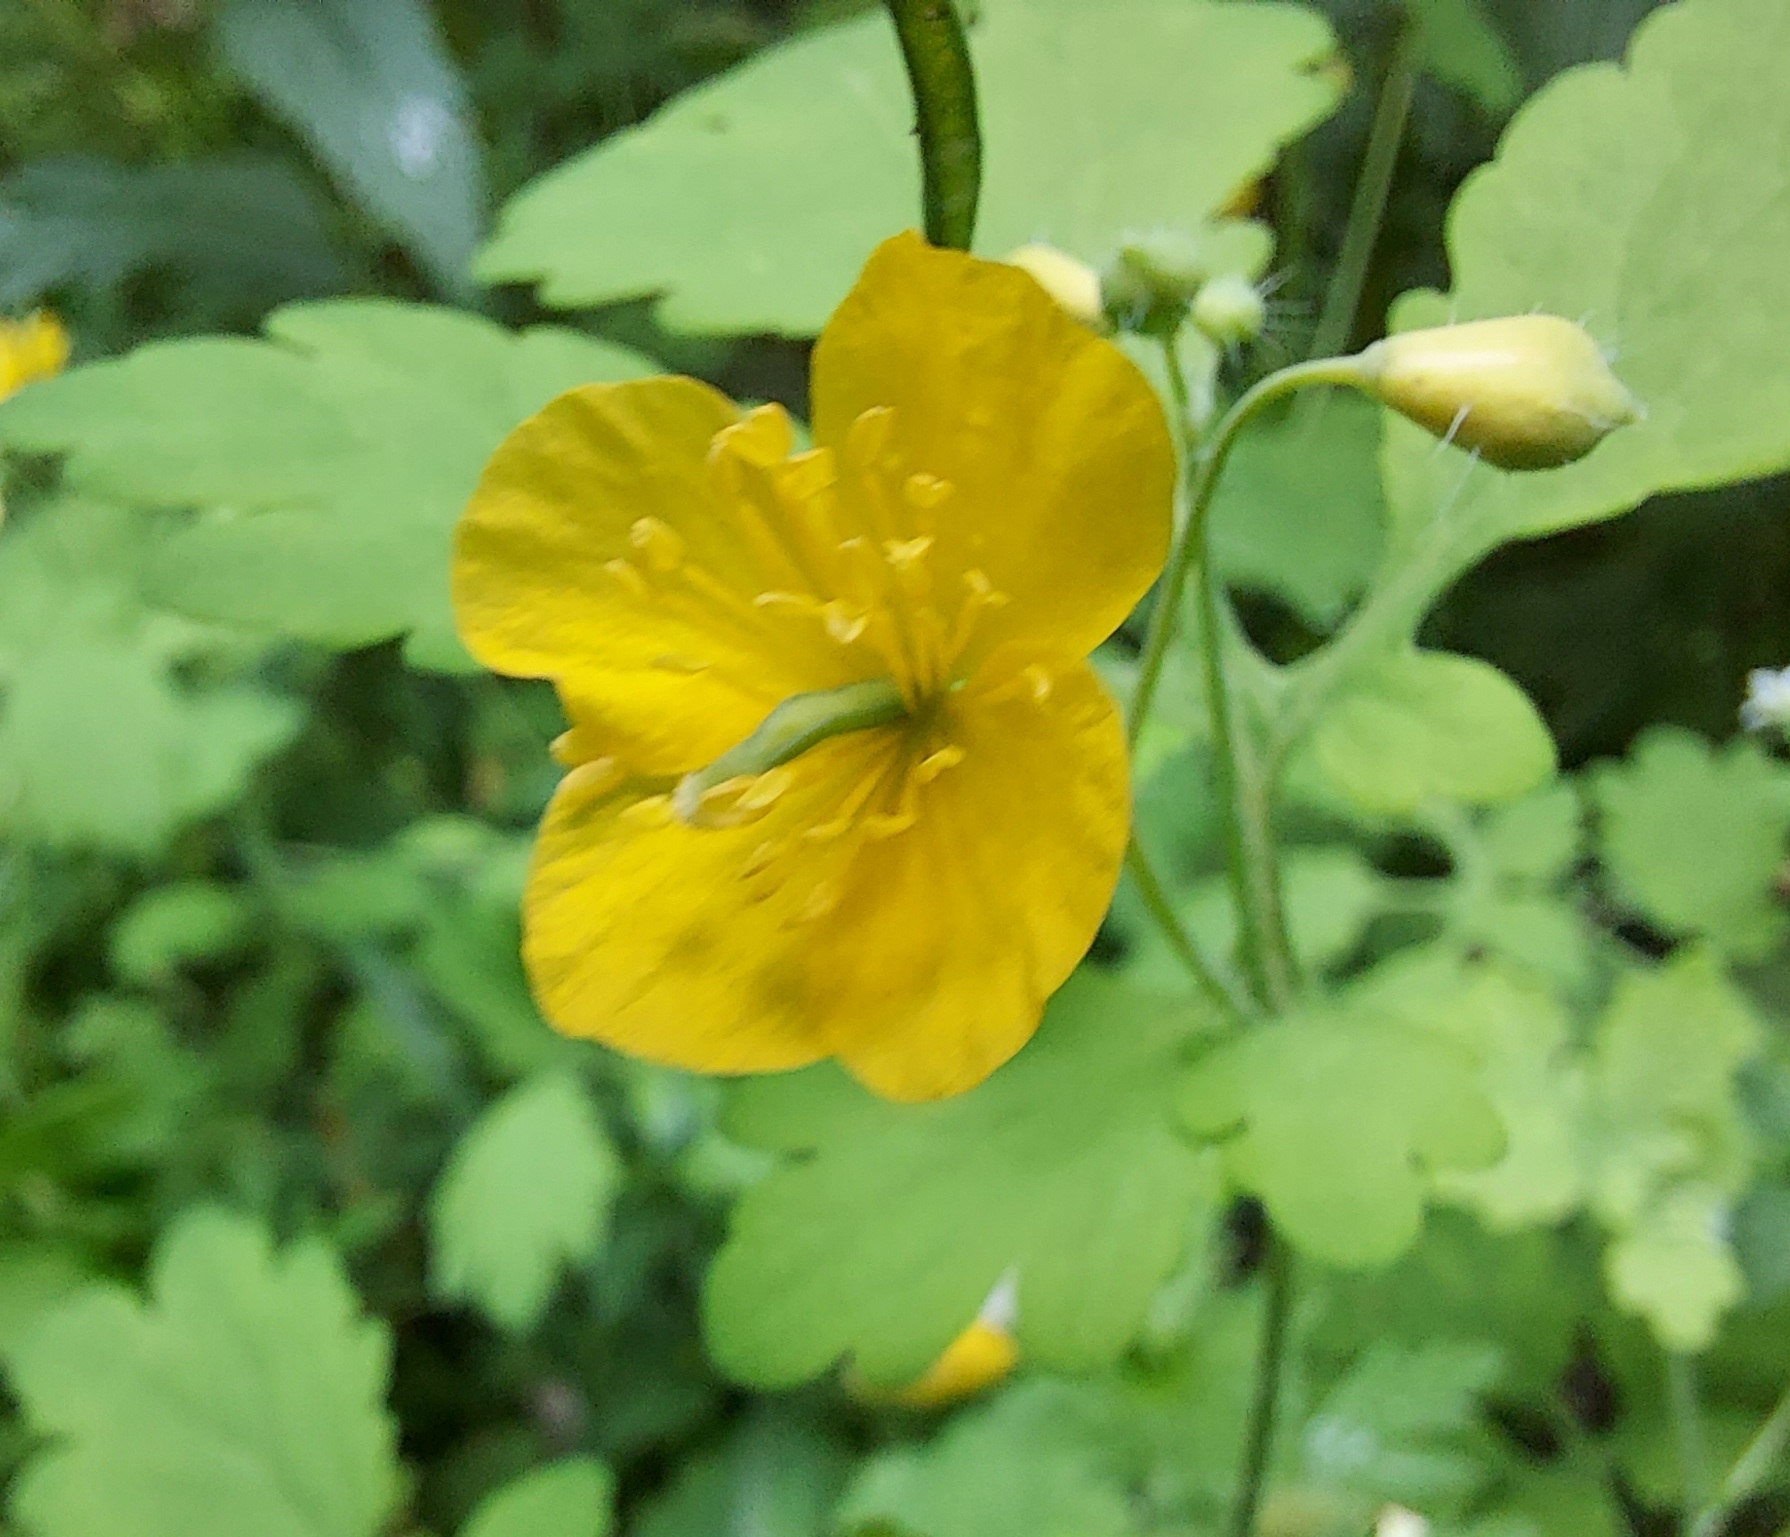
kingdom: Plantae
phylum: Tracheophyta
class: Magnoliopsida
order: Ranunculales
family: Papaveraceae
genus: Chelidonium
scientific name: Chelidonium majus
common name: Greater celandine
